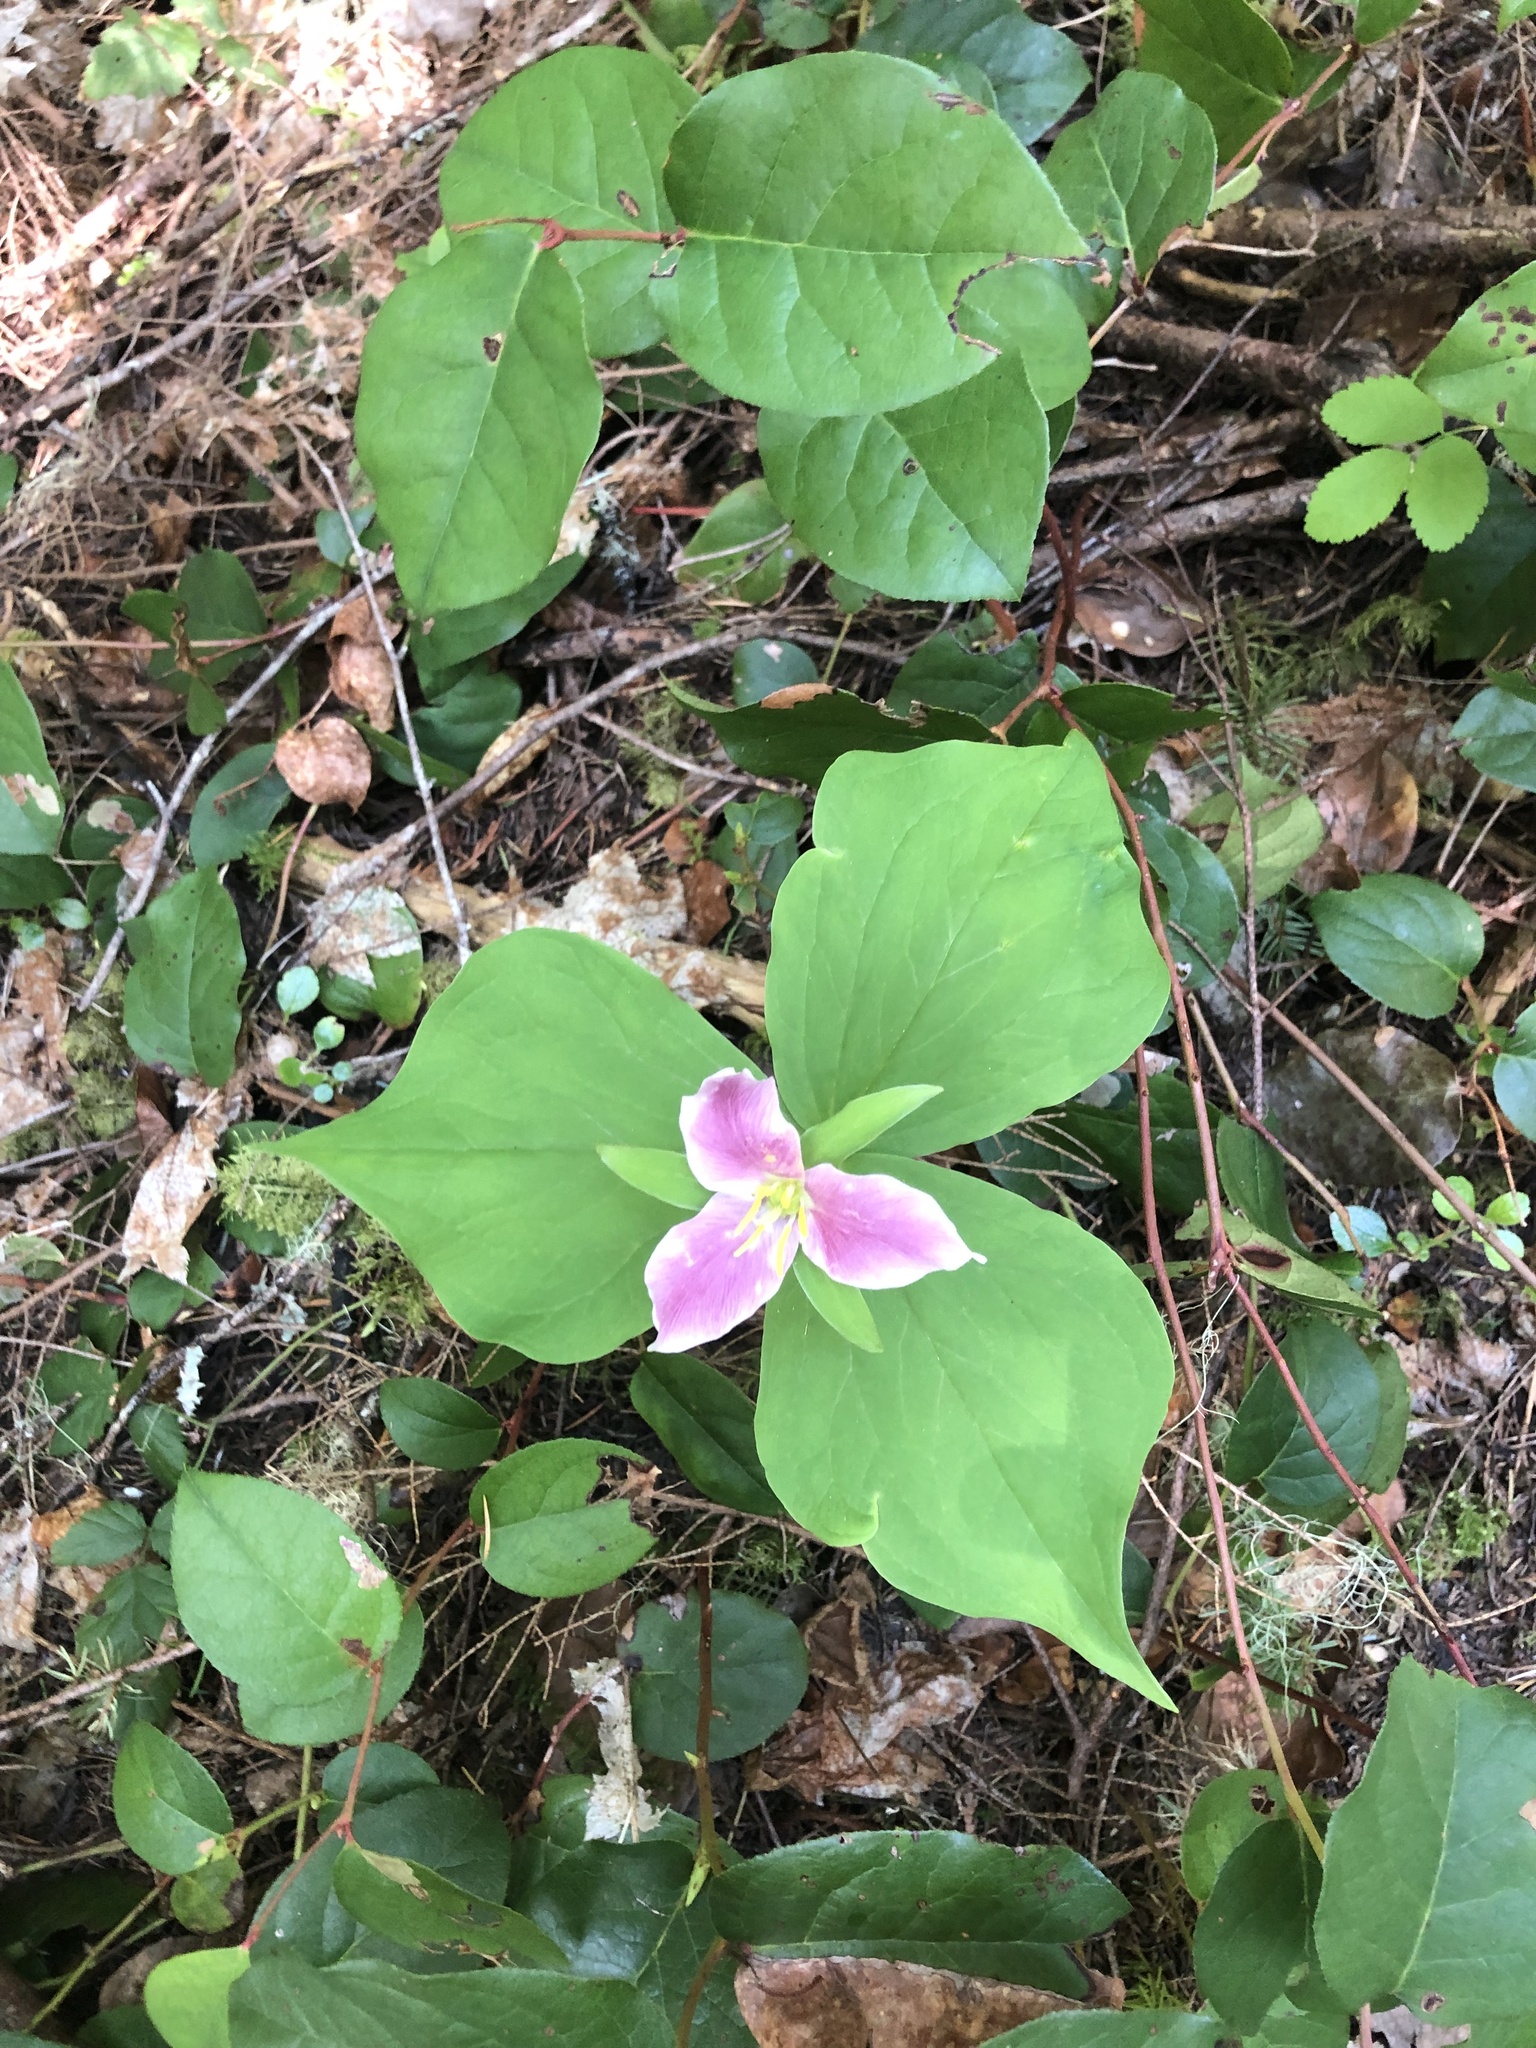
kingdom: Plantae
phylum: Tracheophyta
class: Liliopsida
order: Liliales
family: Melanthiaceae
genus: Trillium
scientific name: Trillium ovatum
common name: Pacific trillium
